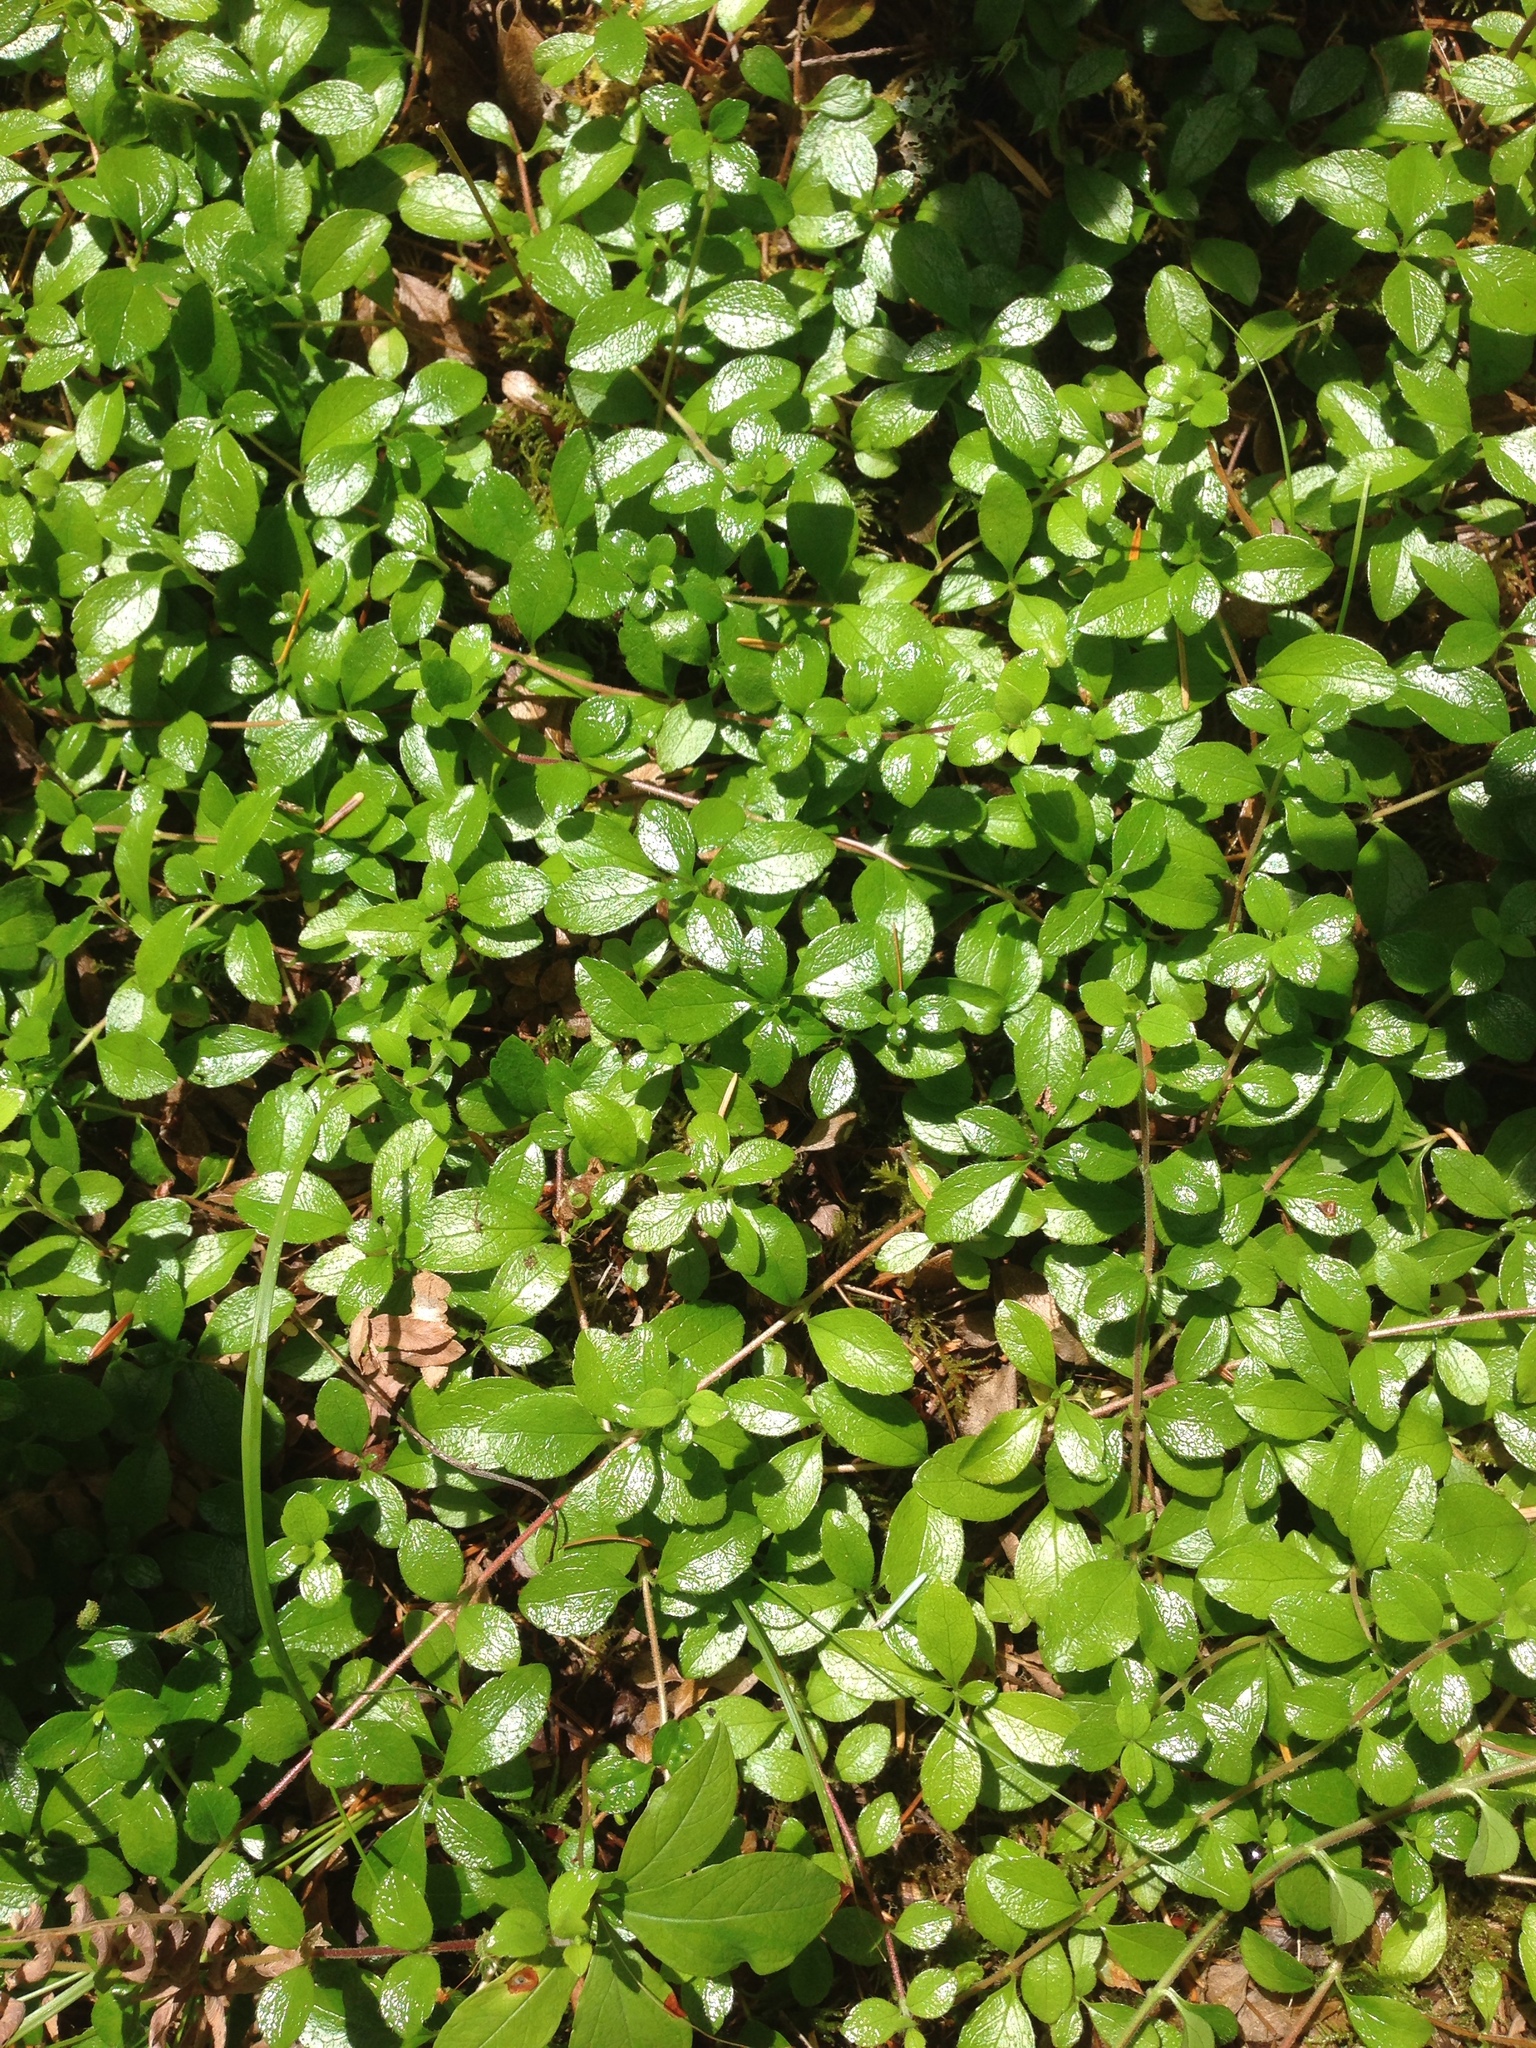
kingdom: Plantae
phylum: Tracheophyta
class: Magnoliopsida
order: Dipsacales
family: Caprifoliaceae
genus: Linnaea
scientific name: Linnaea borealis
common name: Twinflower
